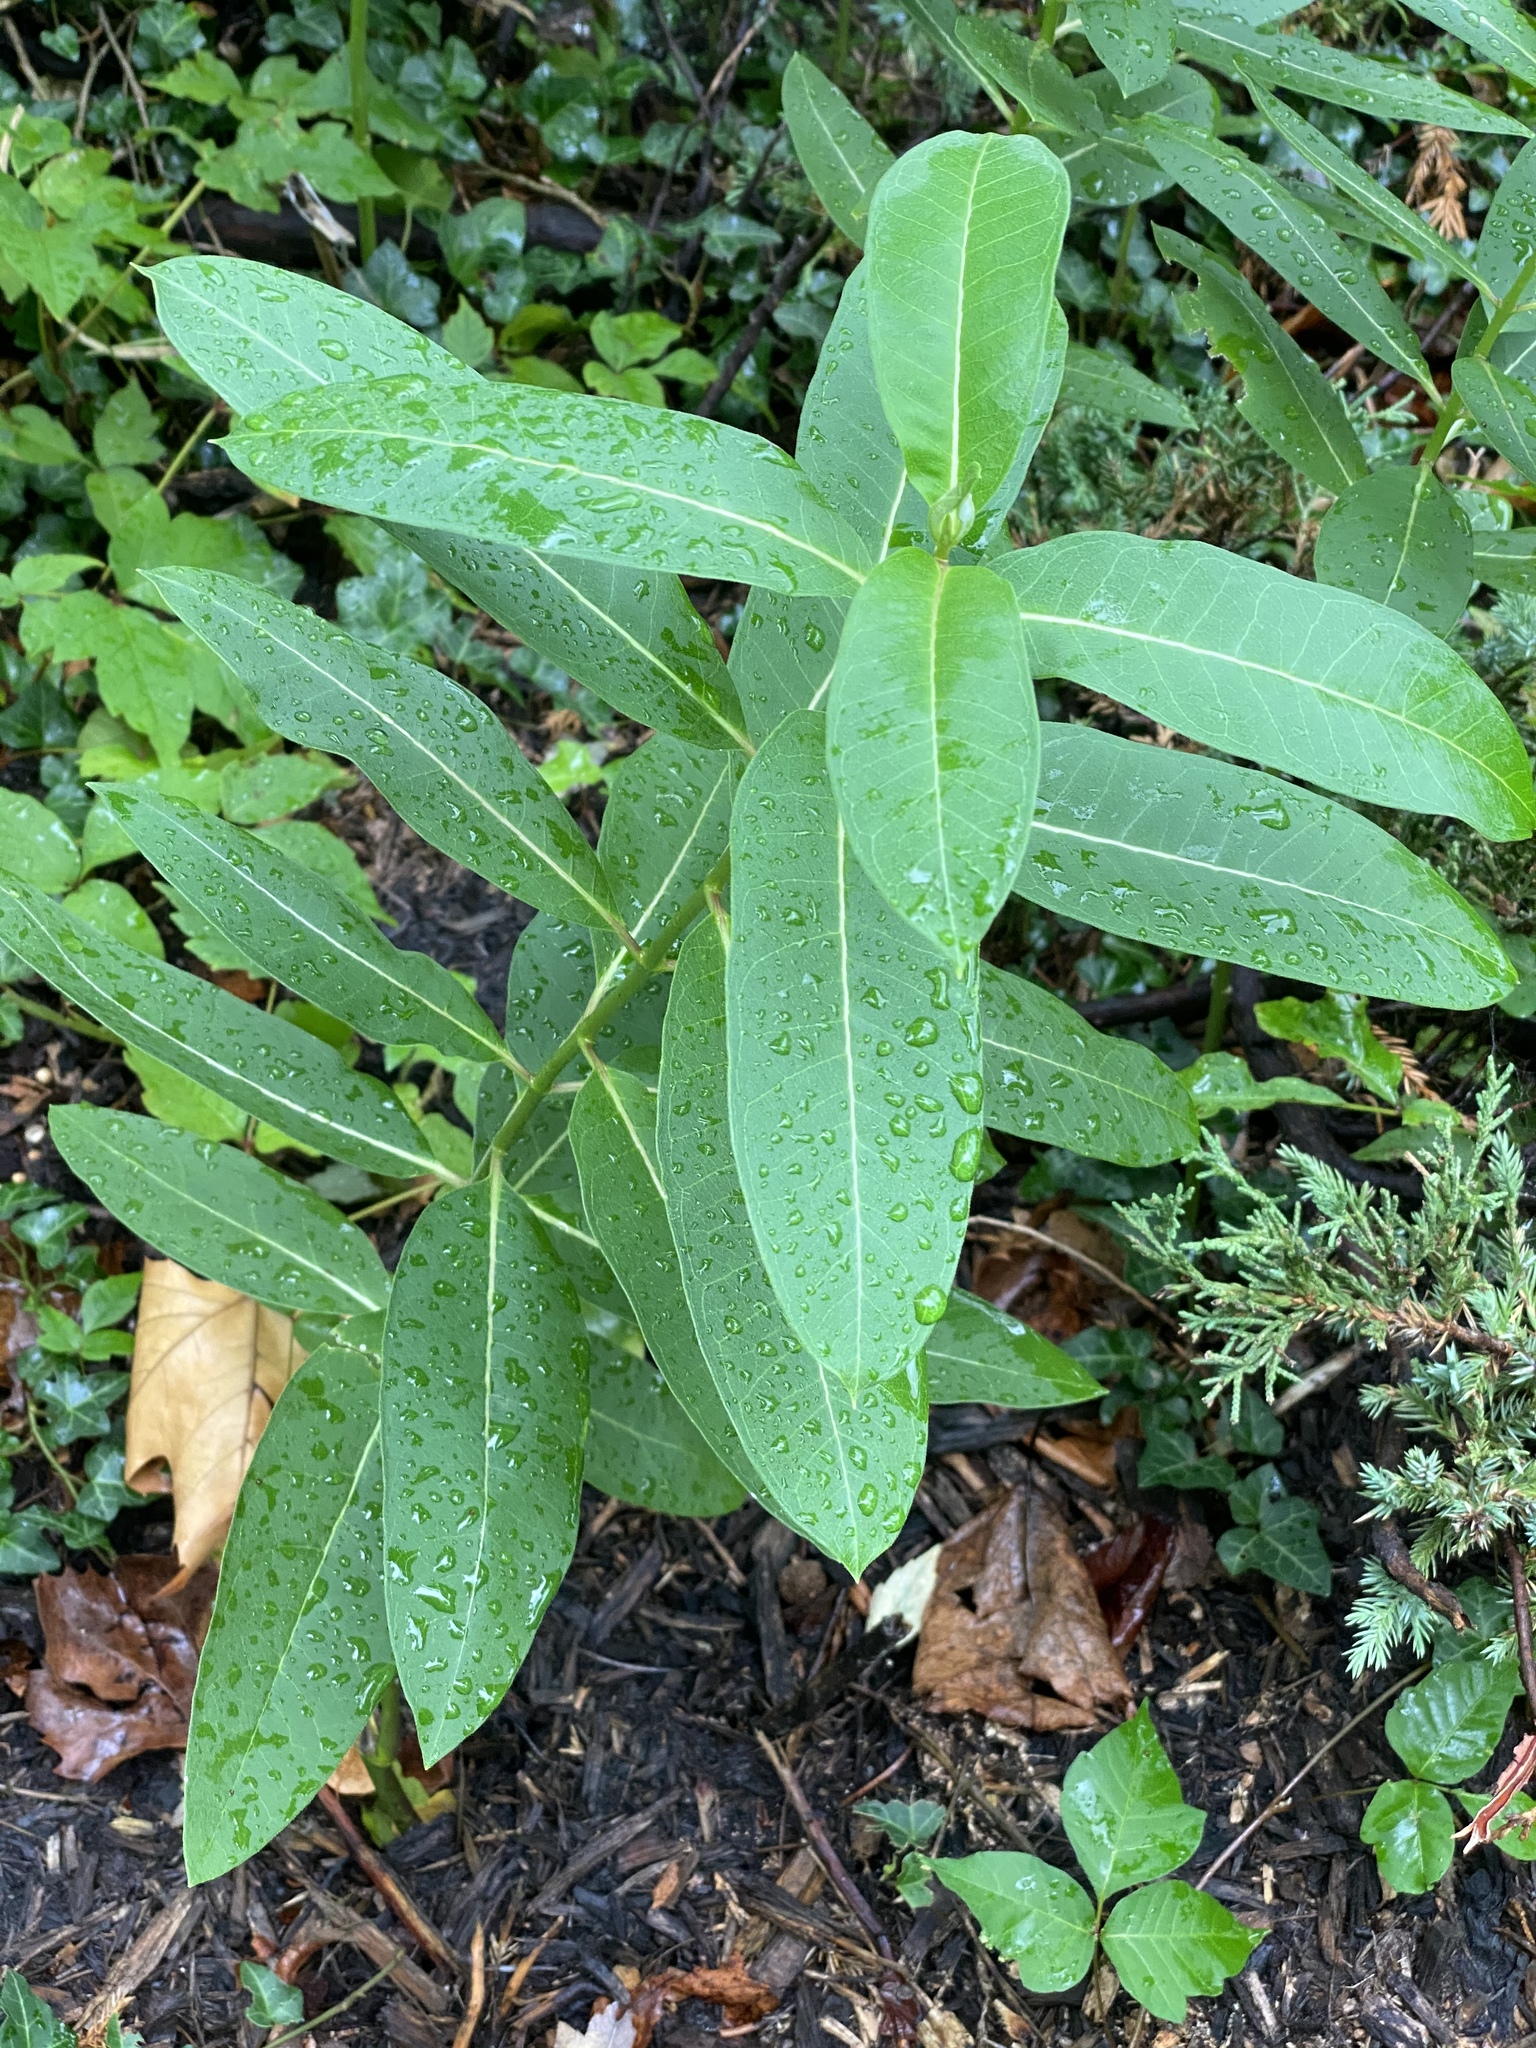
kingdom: Plantae
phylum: Tracheophyta
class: Magnoliopsida
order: Gentianales
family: Apocynaceae
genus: Asclepias
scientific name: Asclepias syriaca
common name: Common milkweed
